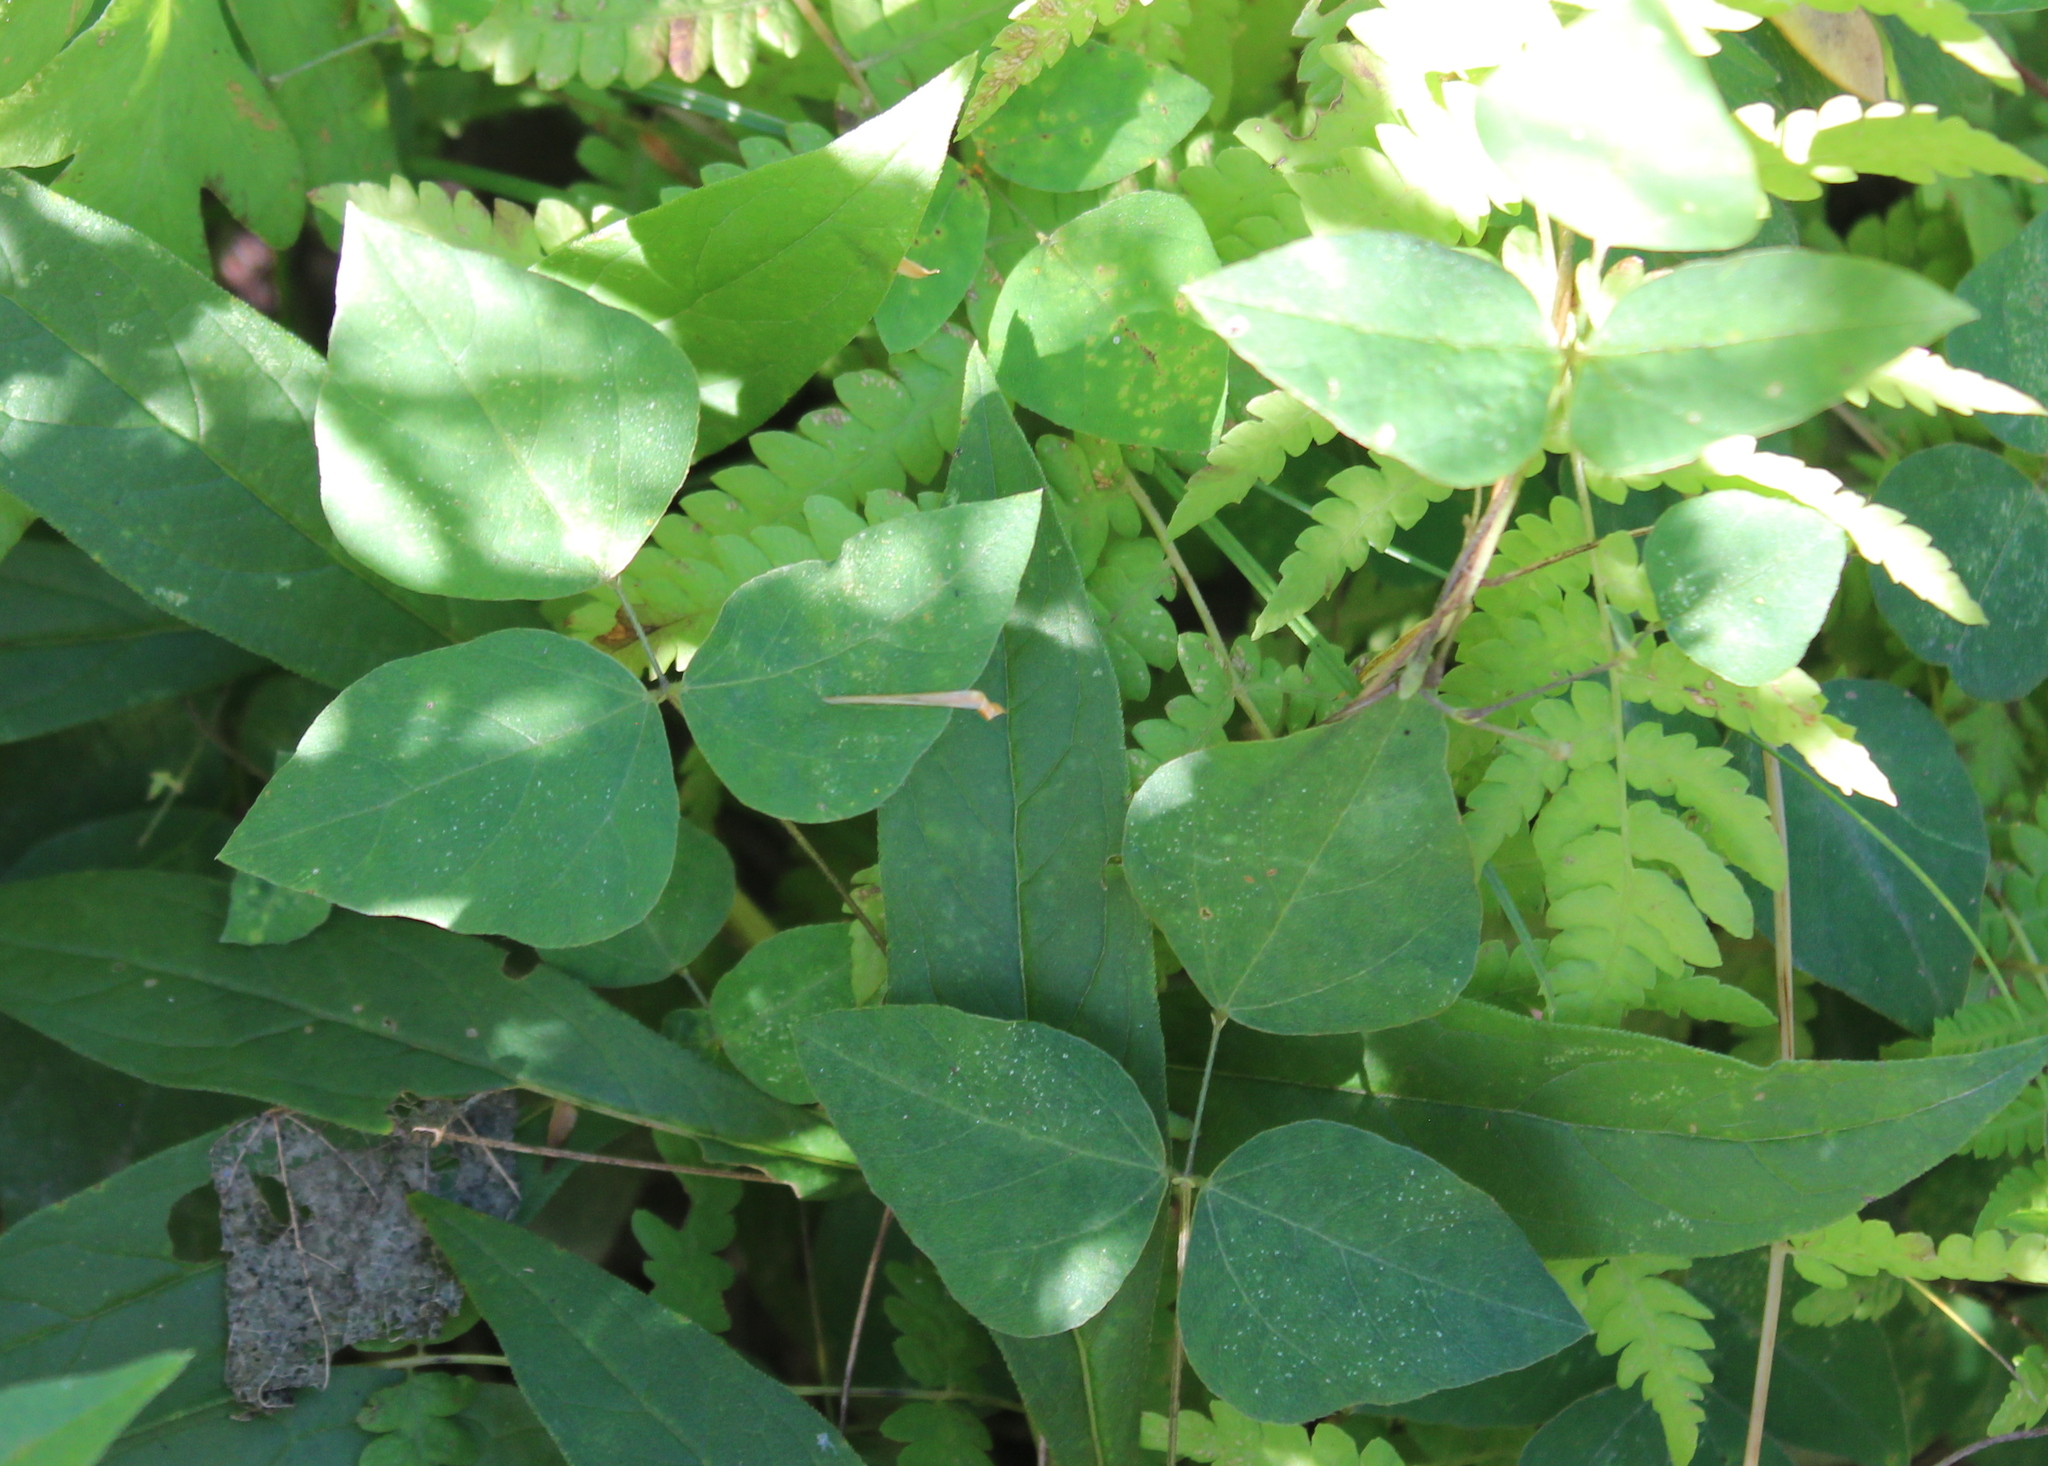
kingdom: Plantae
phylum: Tracheophyta
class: Magnoliopsida
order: Fabales
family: Fabaceae
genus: Amphicarpaea
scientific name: Amphicarpaea bracteata
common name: American hog peanut
